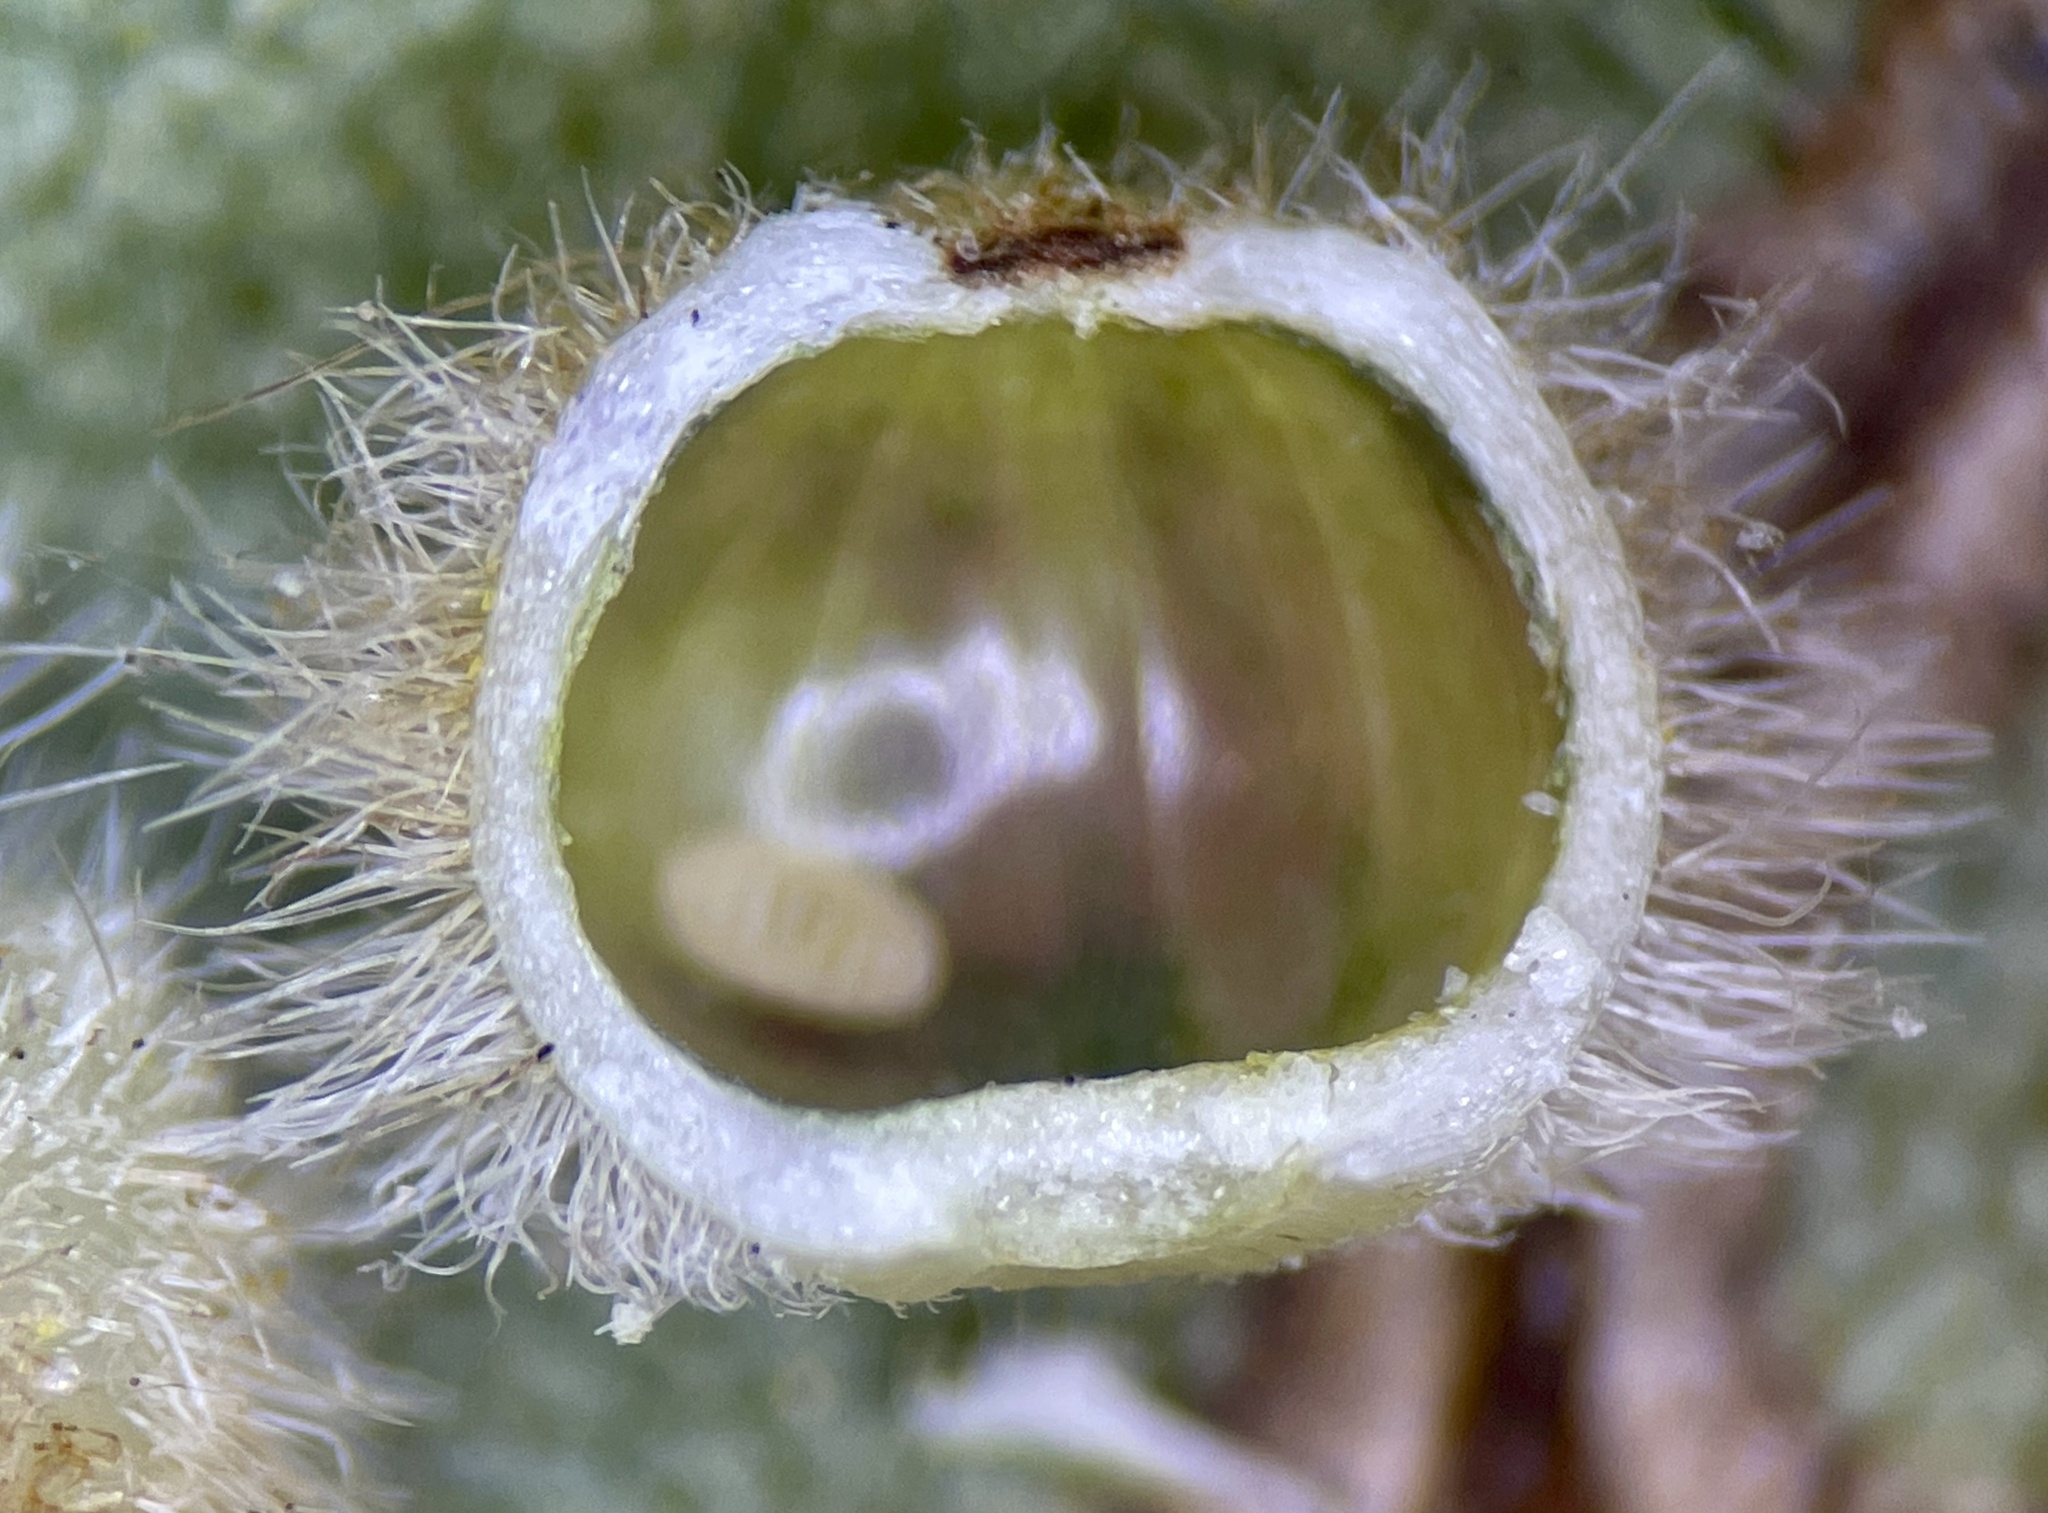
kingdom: Animalia
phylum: Arthropoda
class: Insecta
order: Diptera
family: Cecidomyiidae
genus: Caryomyia
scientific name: Caryomyia hirtiglobus
